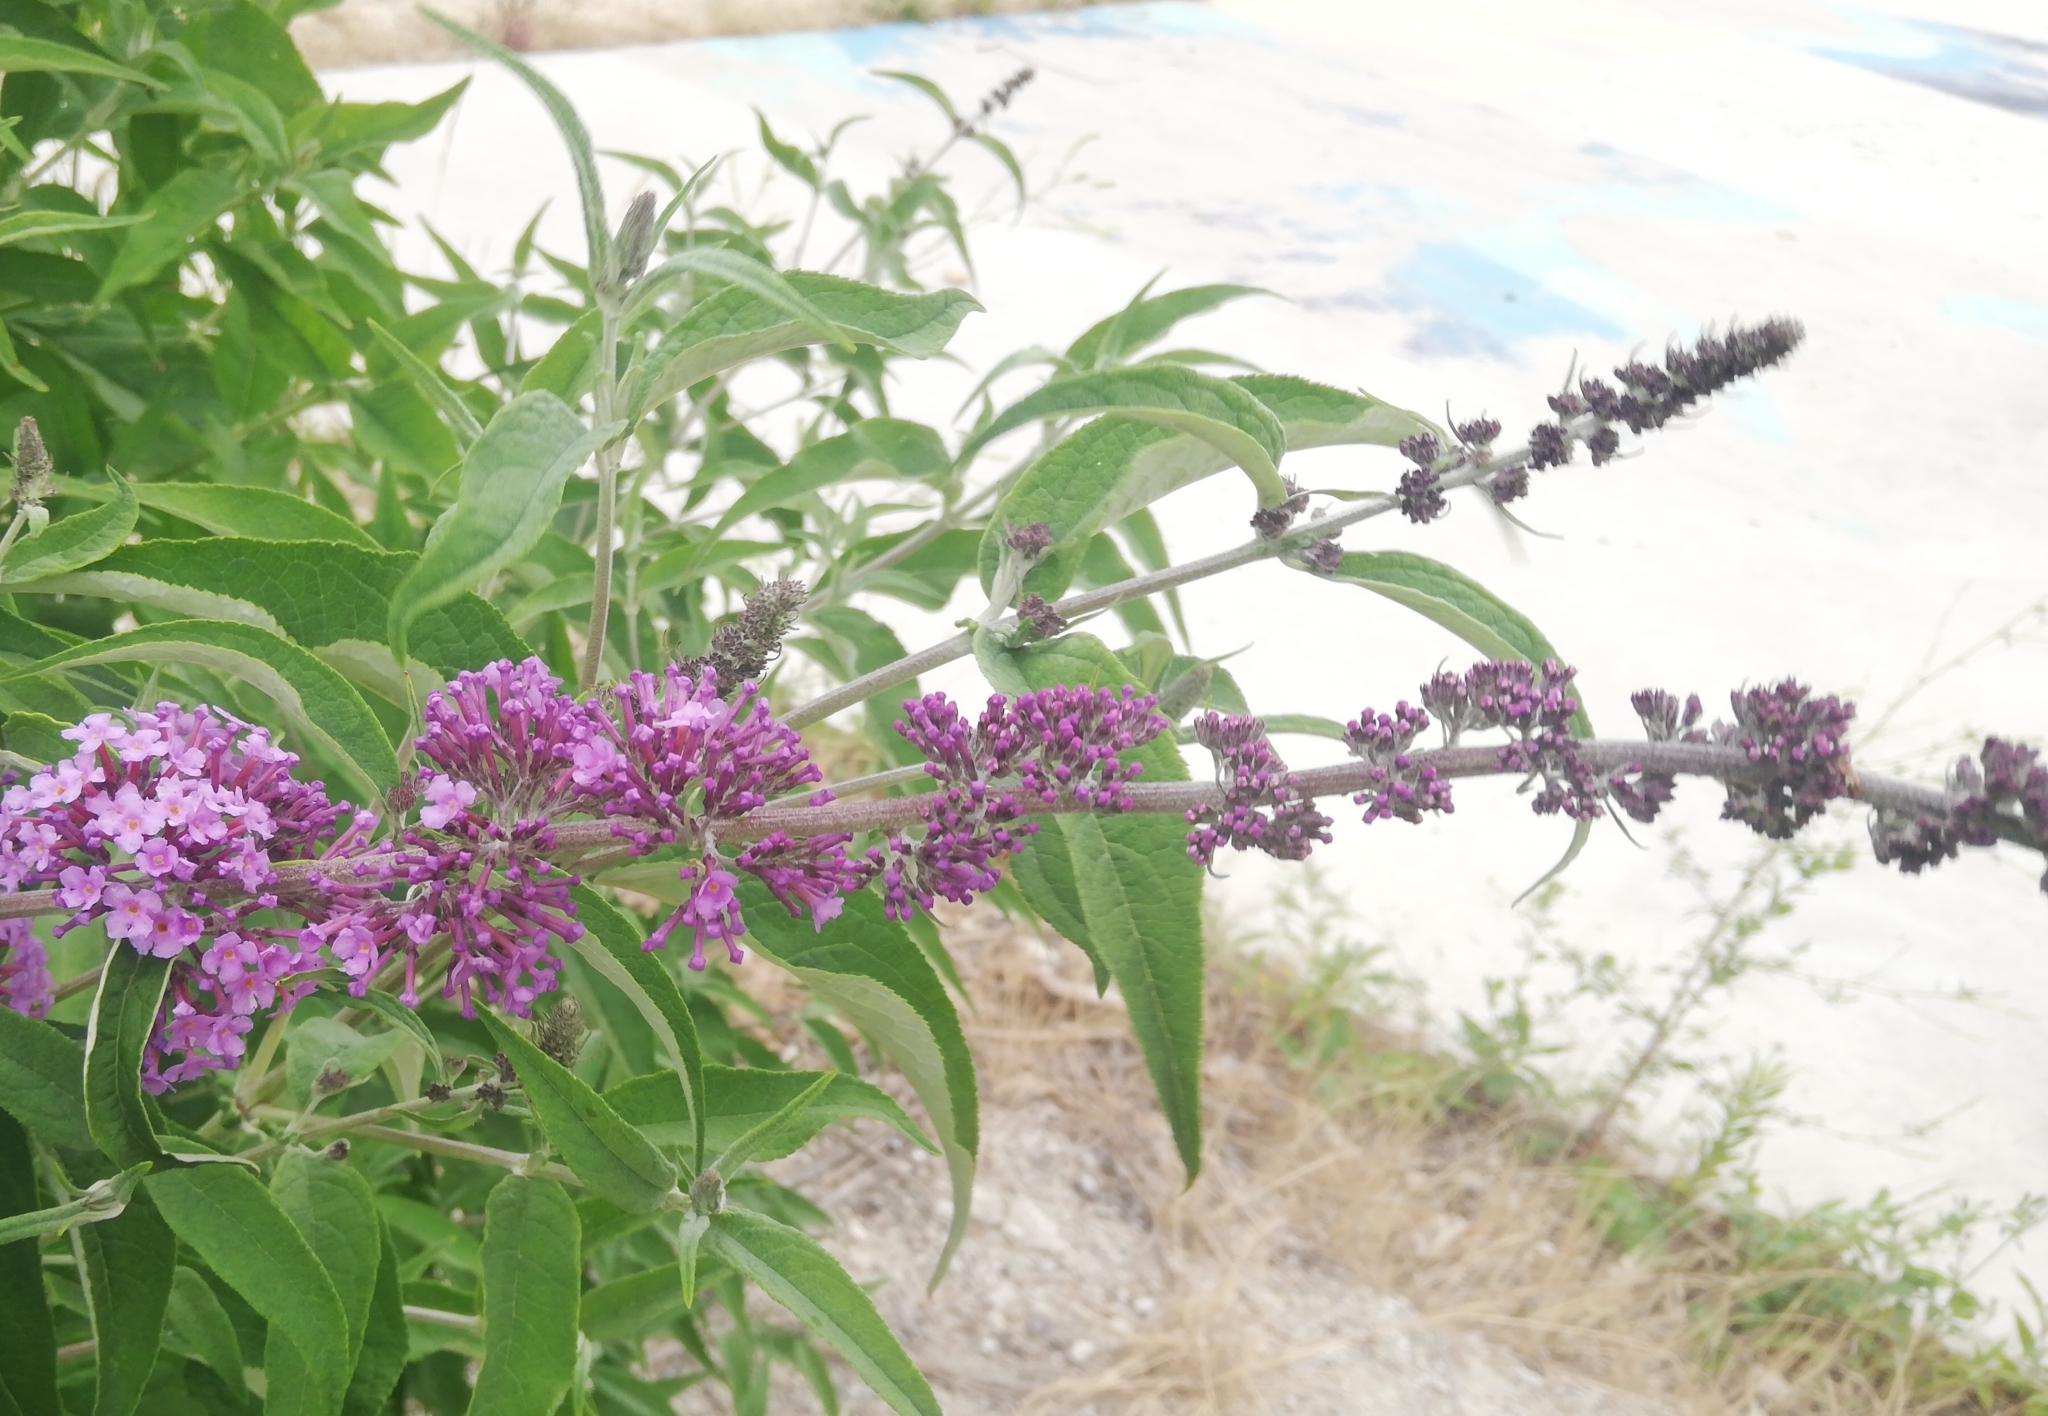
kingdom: Plantae
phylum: Tracheophyta
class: Magnoliopsida
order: Lamiales
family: Scrophulariaceae
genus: Buddleja
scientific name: Buddleja davidii
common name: Butterfly-bush
